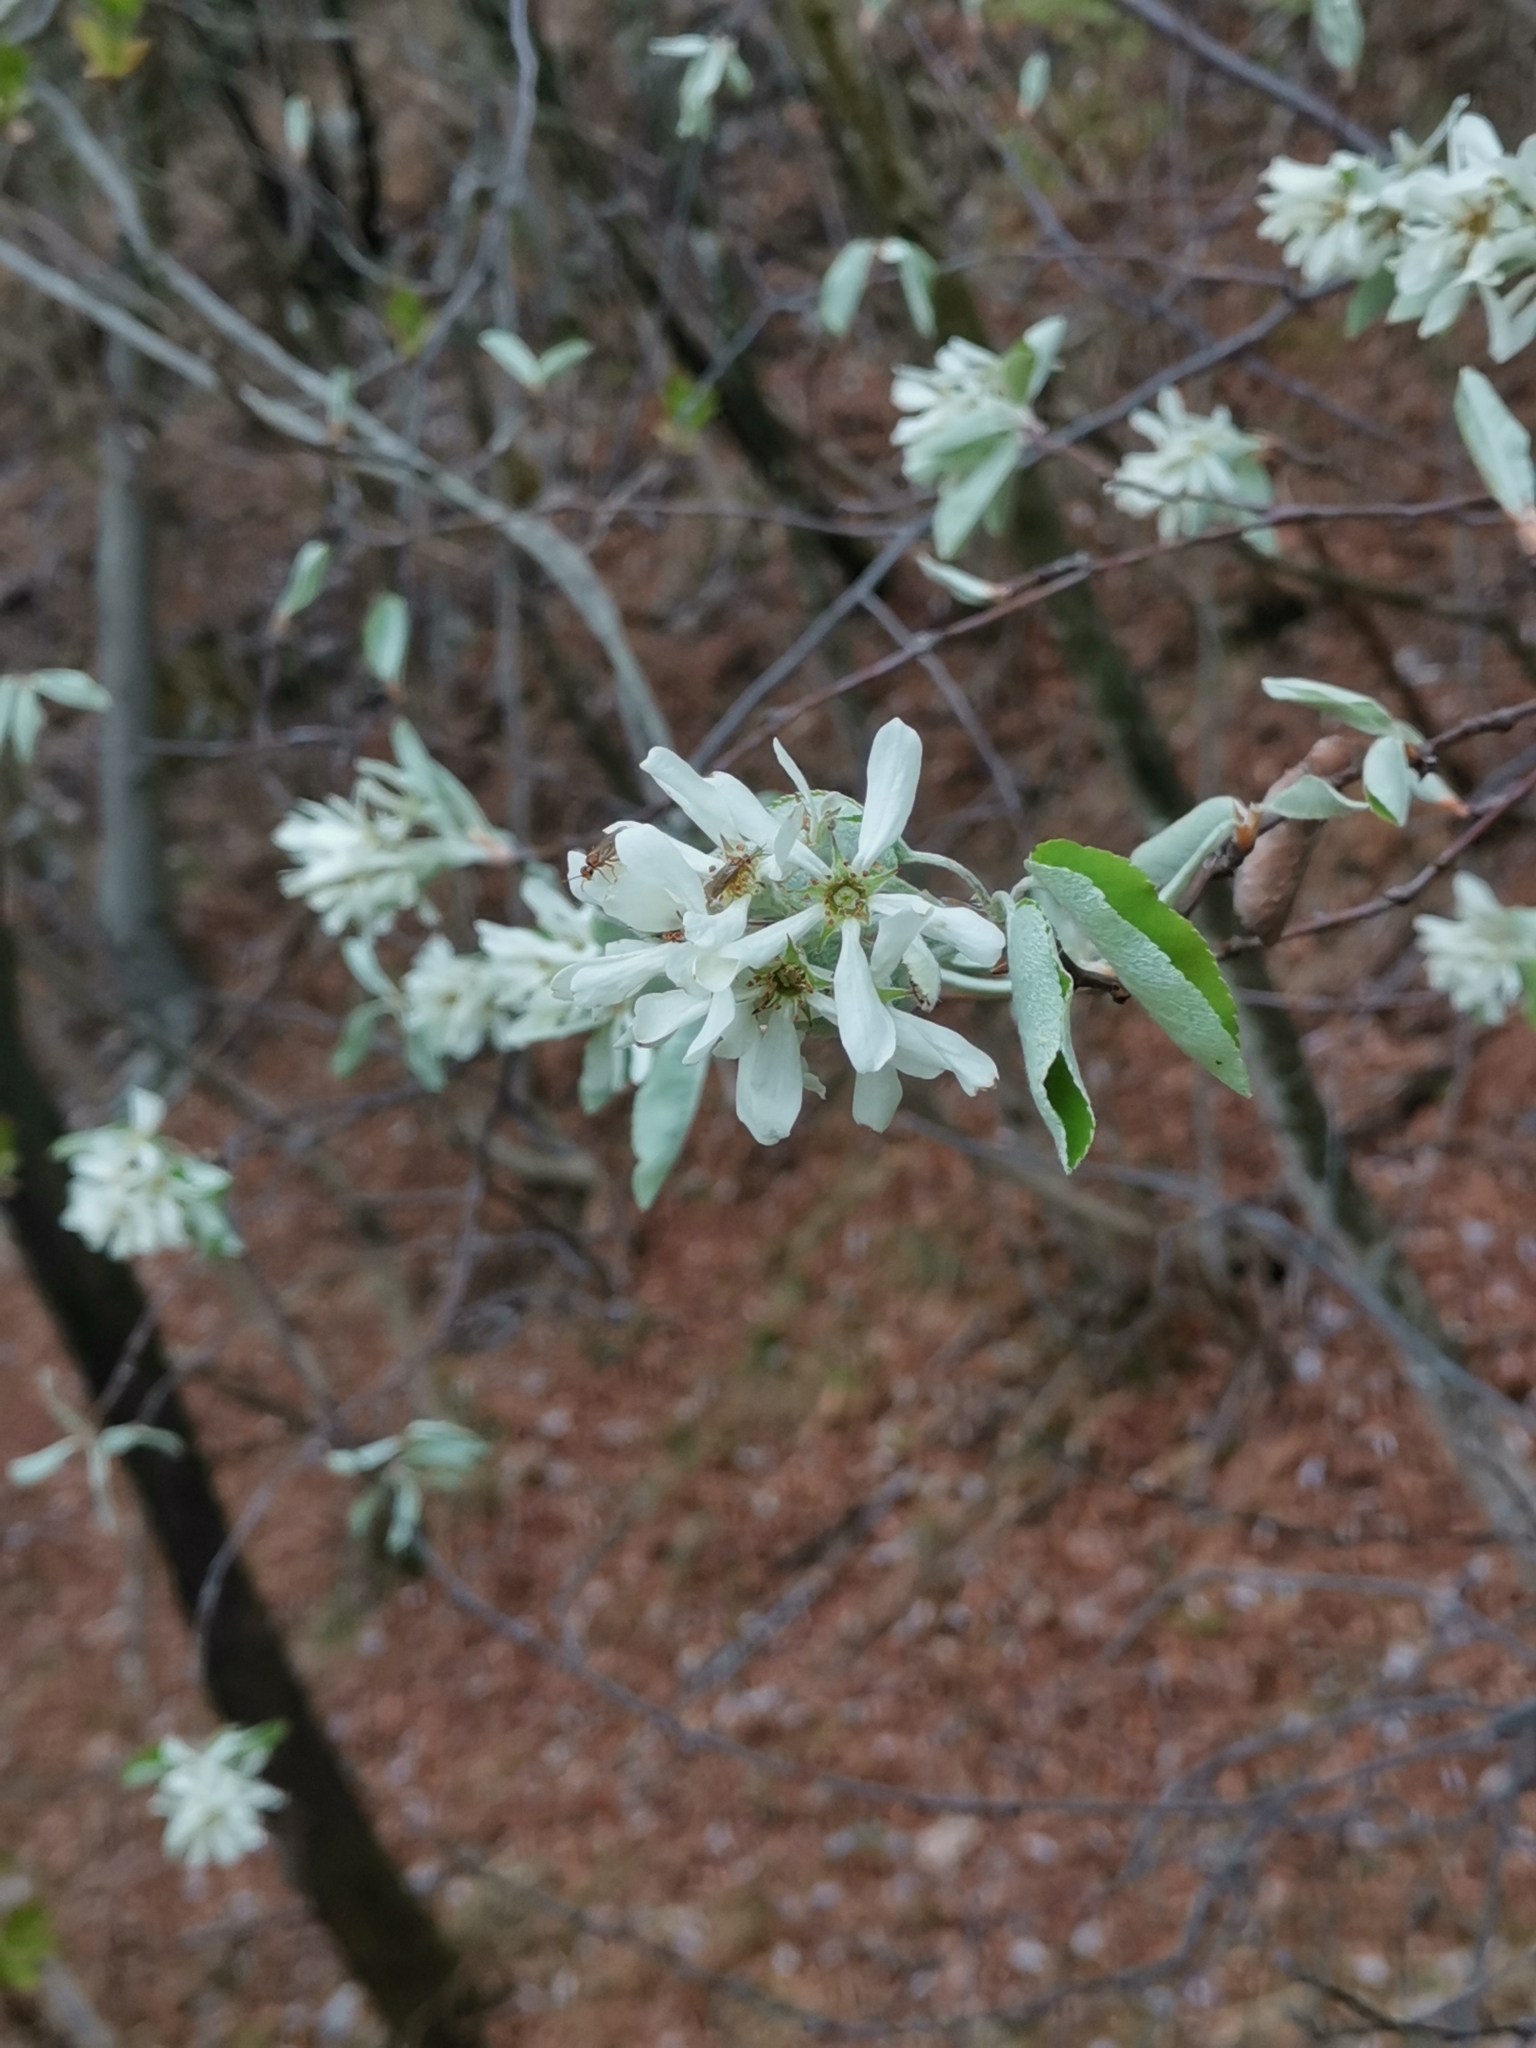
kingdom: Plantae
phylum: Tracheophyta
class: Magnoliopsida
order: Rosales
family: Rosaceae
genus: Amelanchier
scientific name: Amelanchier ovalis
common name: Serviceberry
